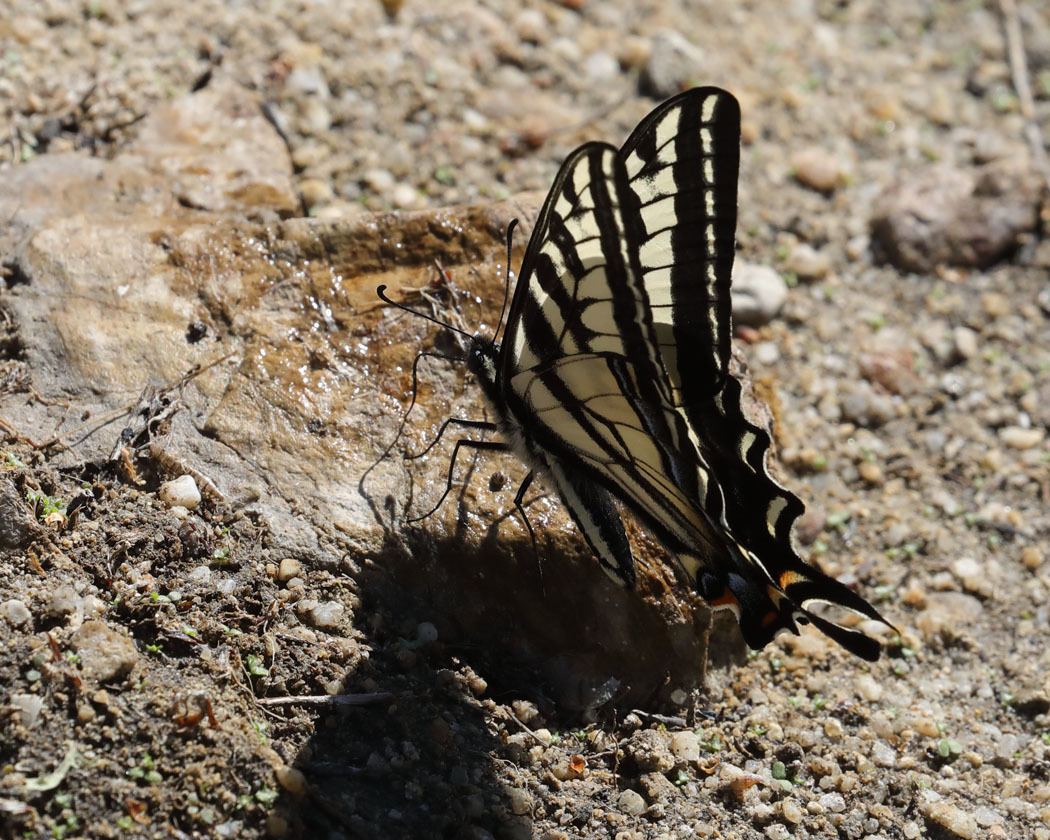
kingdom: Animalia
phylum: Arthropoda
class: Insecta
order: Lepidoptera
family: Papilionidae
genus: Papilio
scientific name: Papilio eurymedon
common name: Pale tiger swallowtail
